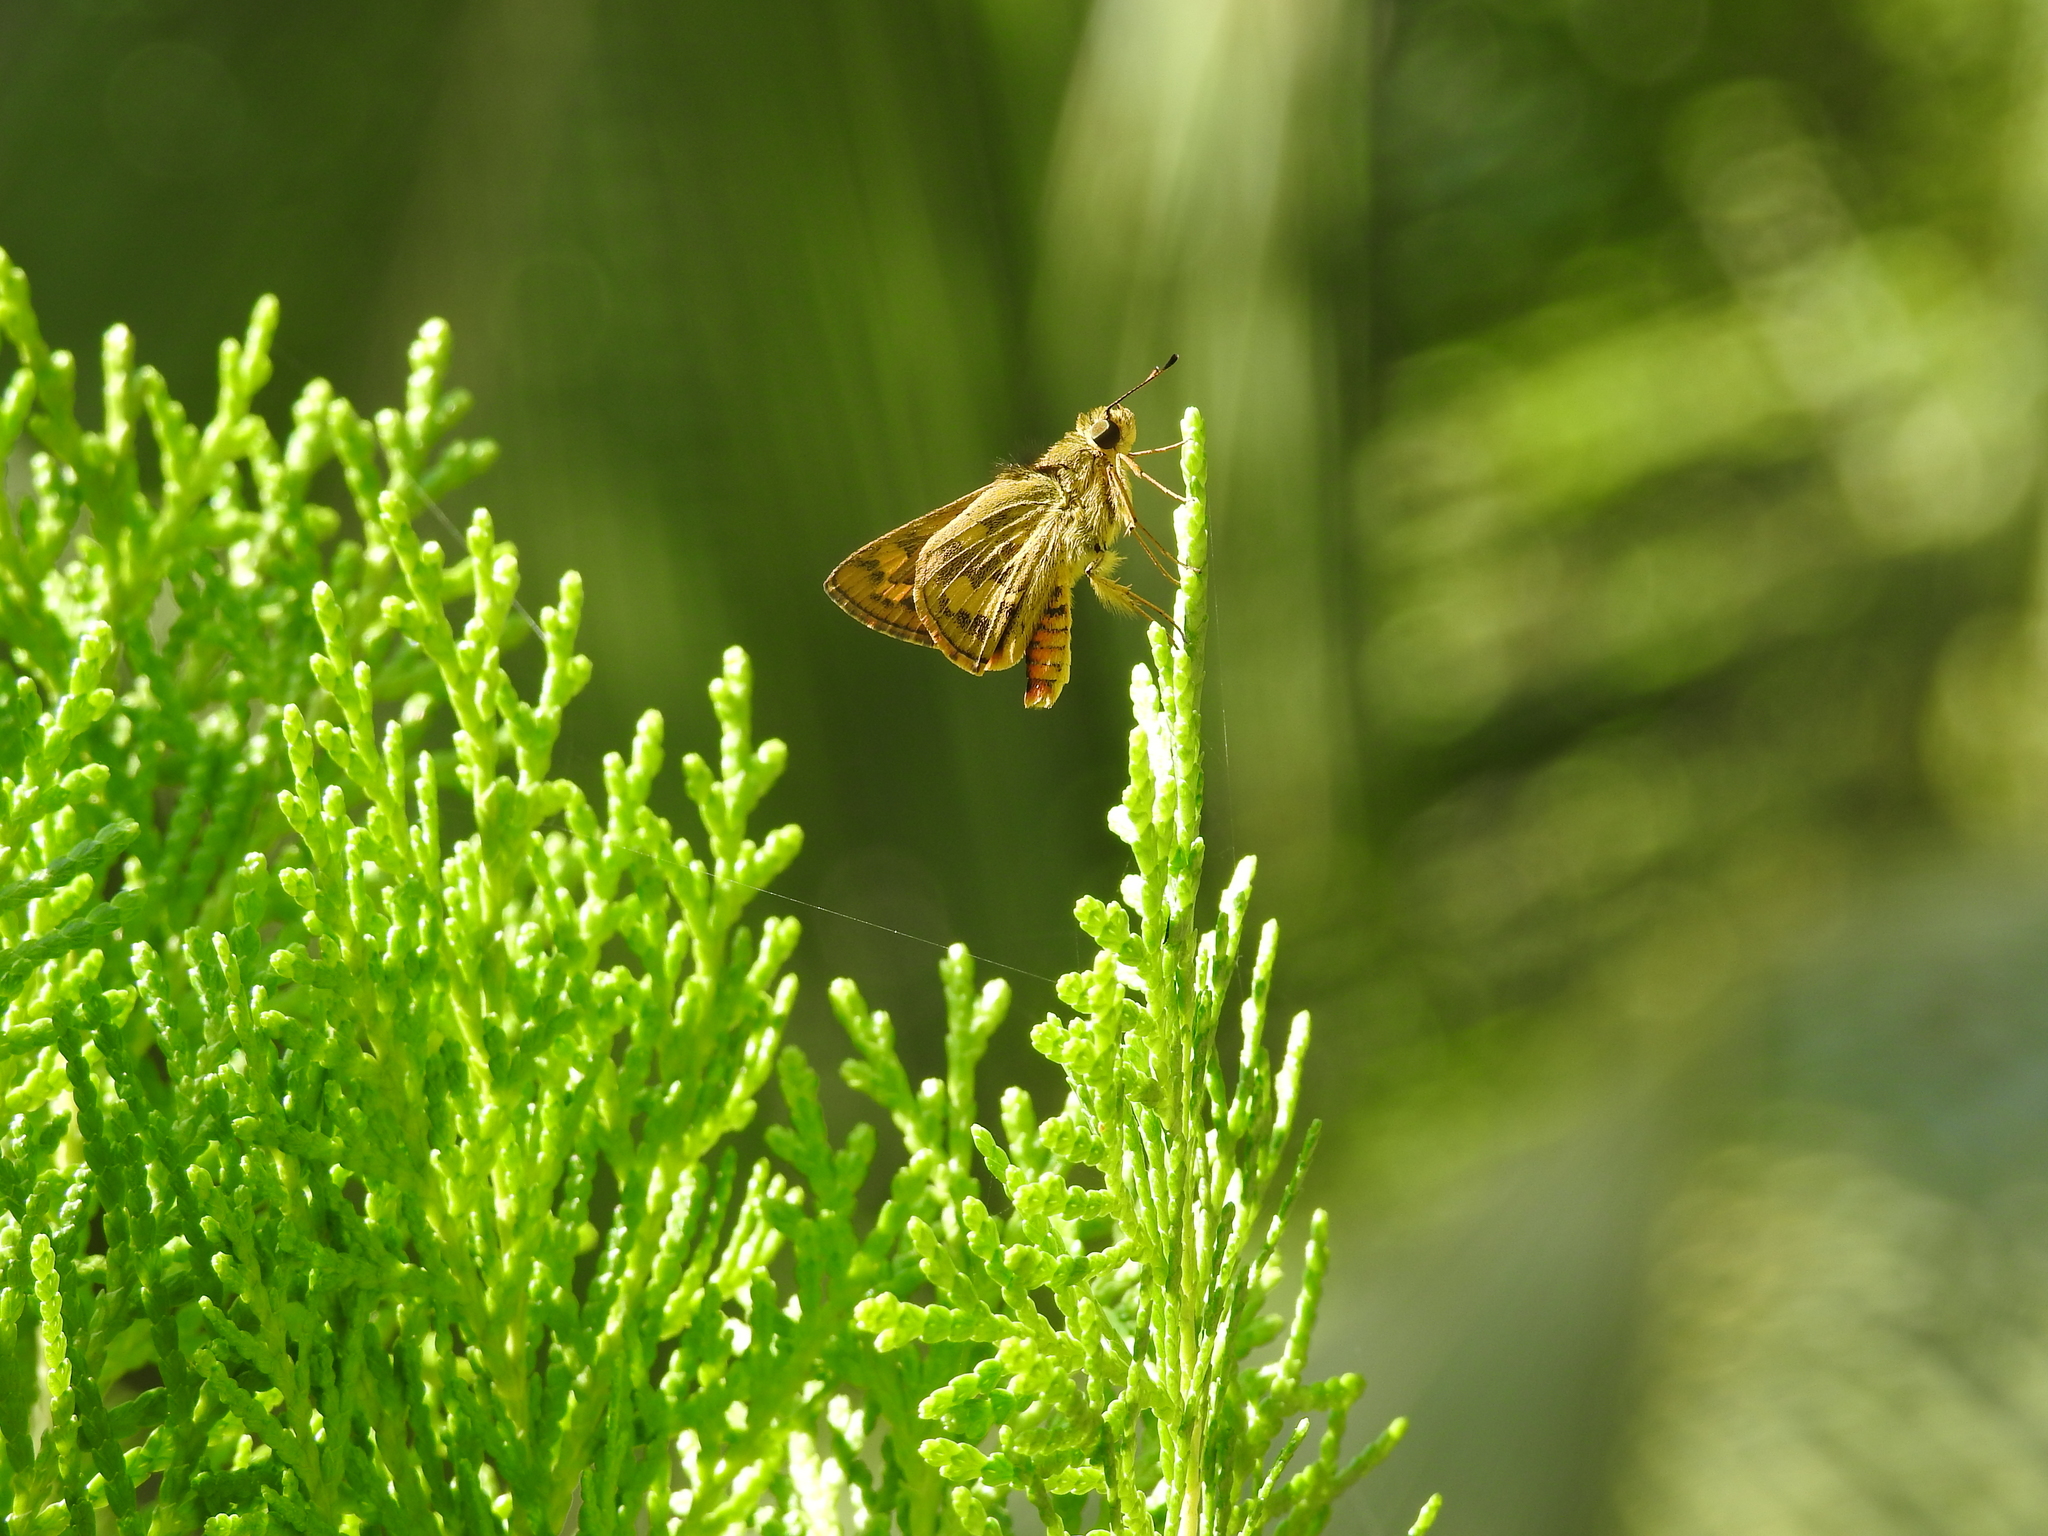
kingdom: Animalia
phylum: Arthropoda
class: Insecta
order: Lepidoptera
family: Hesperiidae
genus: Oriens
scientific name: Oriens gola
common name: Common dartlet
